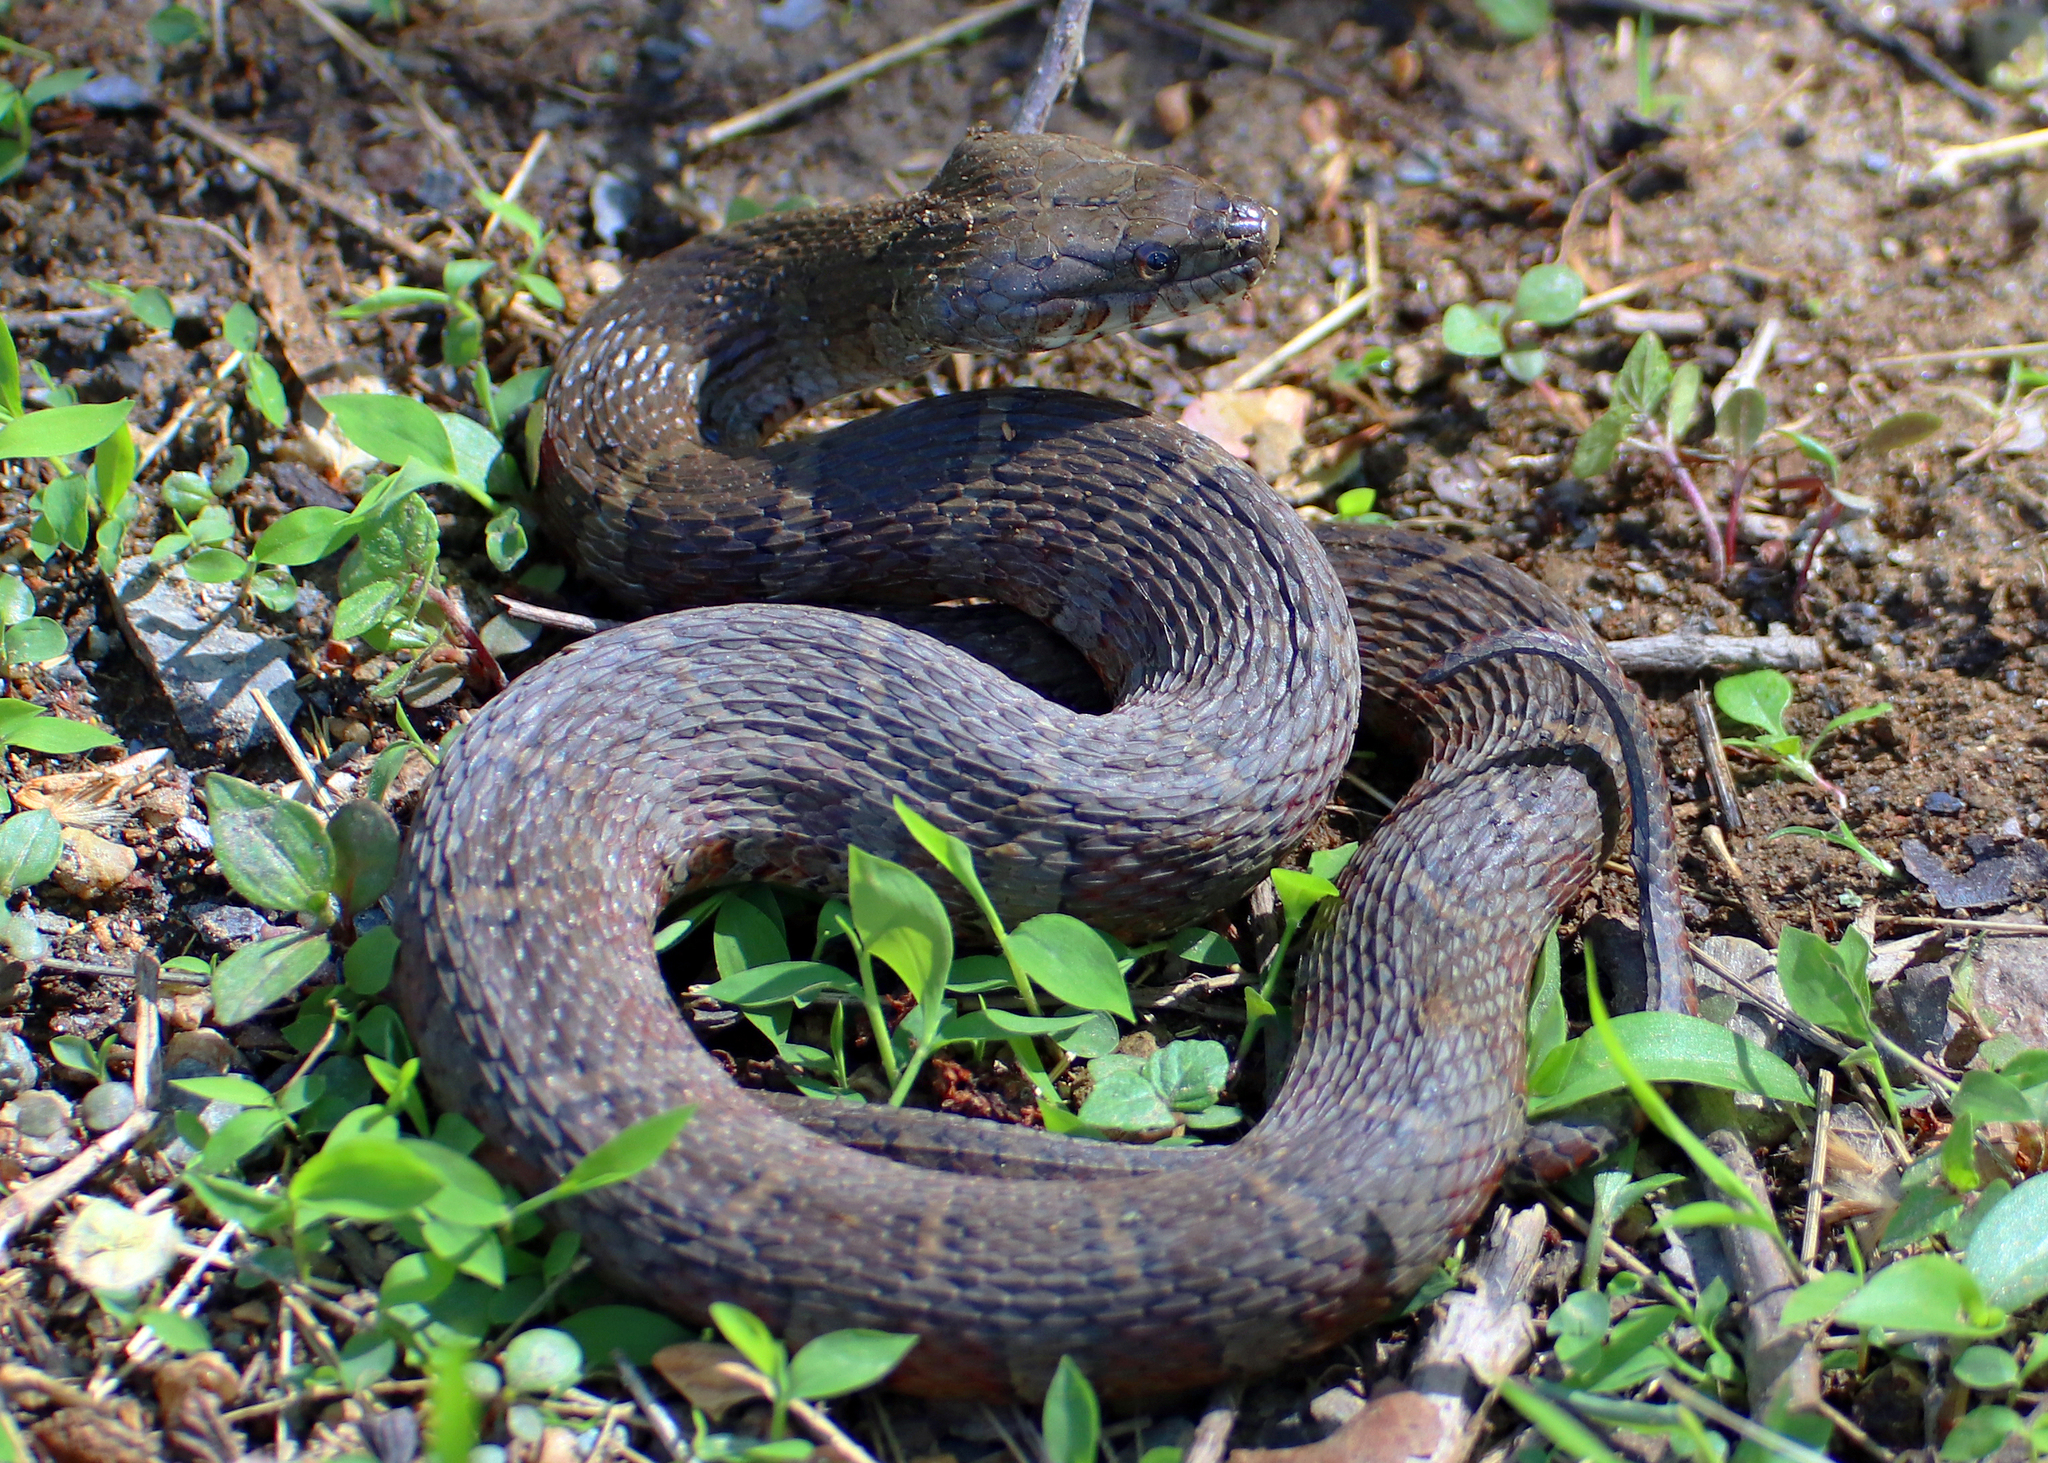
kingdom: Animalia
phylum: Chordata
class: Squamata
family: Colubridae
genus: Nerodia
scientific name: Nerodia sipedon
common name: Northern water snake
